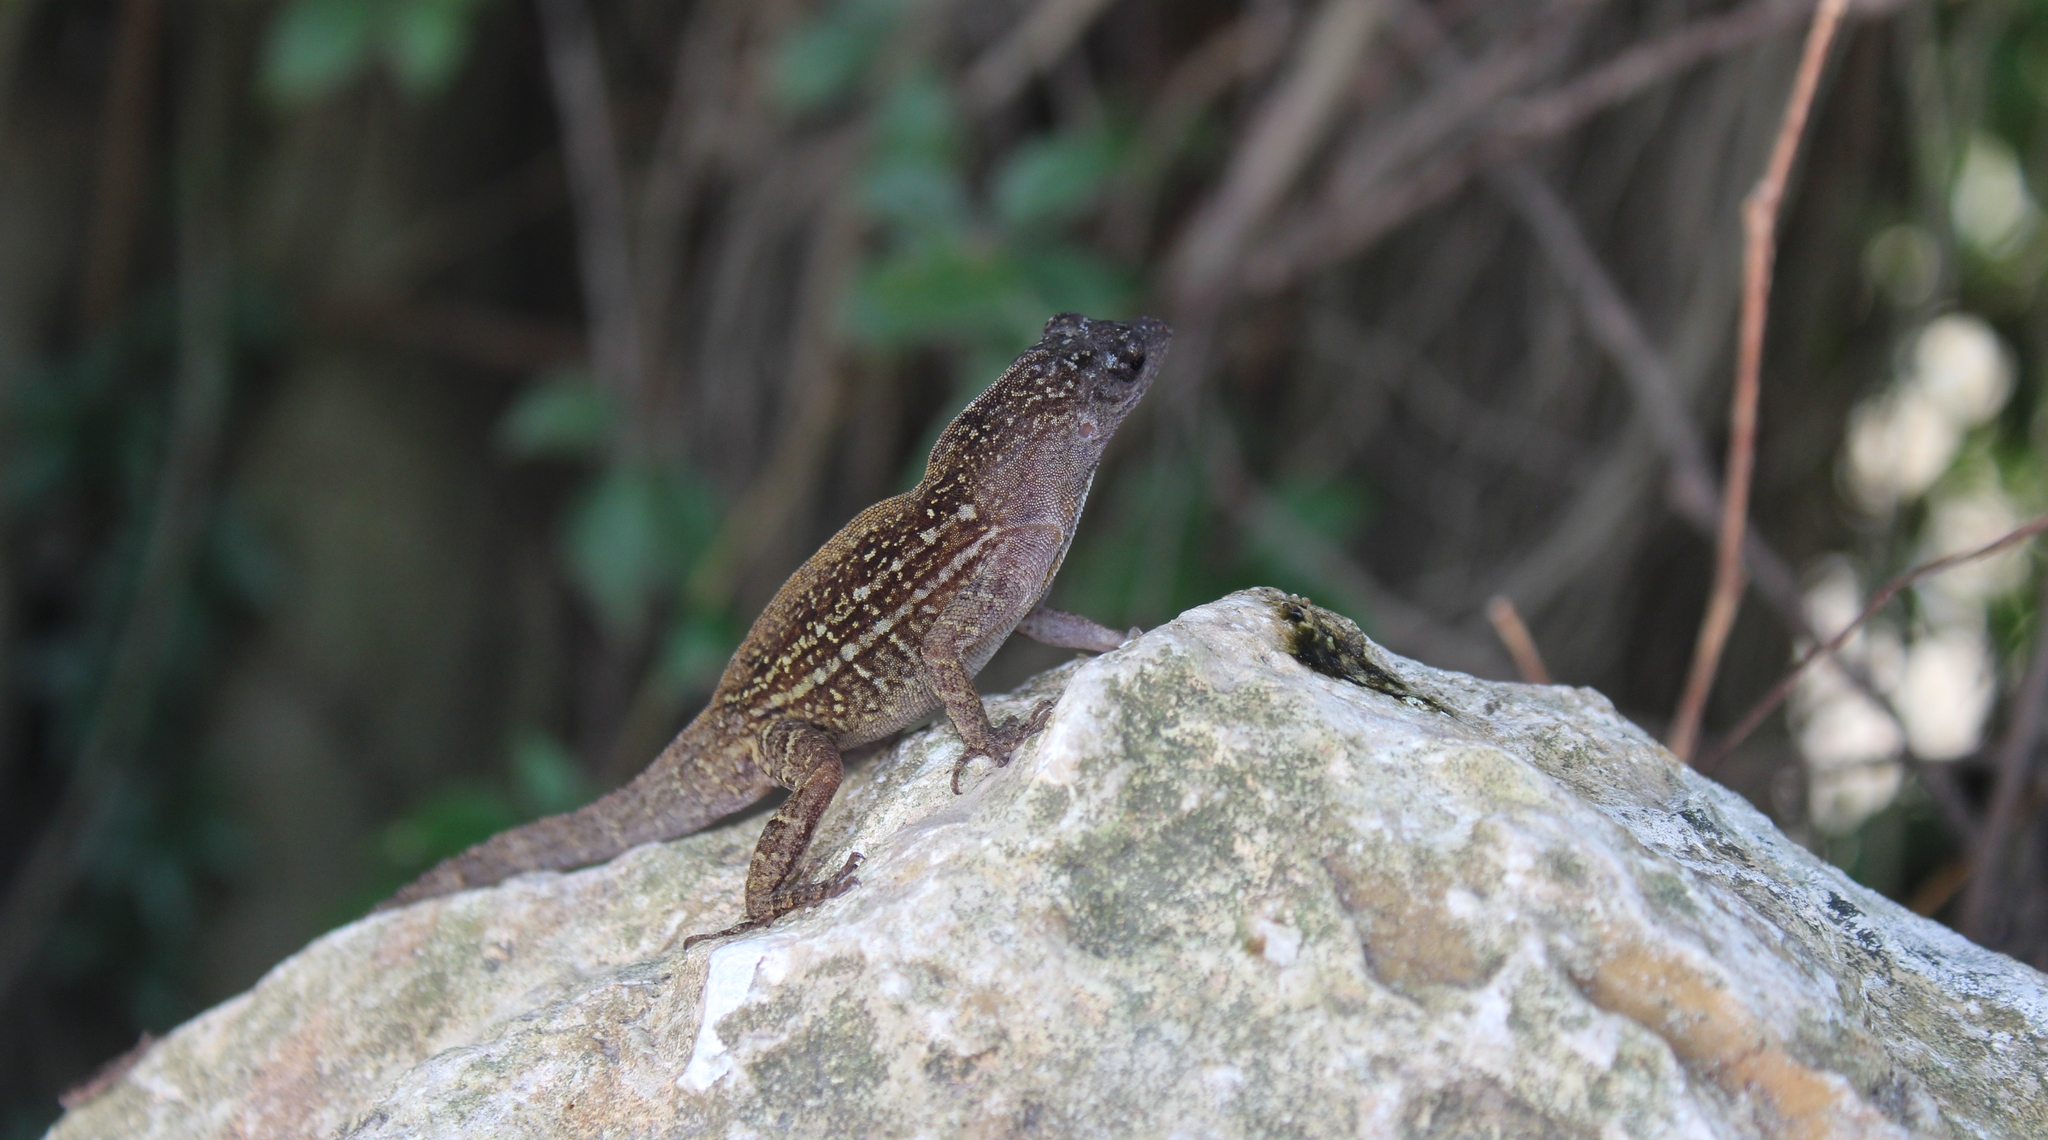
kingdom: Animalia
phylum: Chordata
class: Squamata
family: Dactyloidae
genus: Anolis
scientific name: Anolis sagrei
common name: Brown anole
